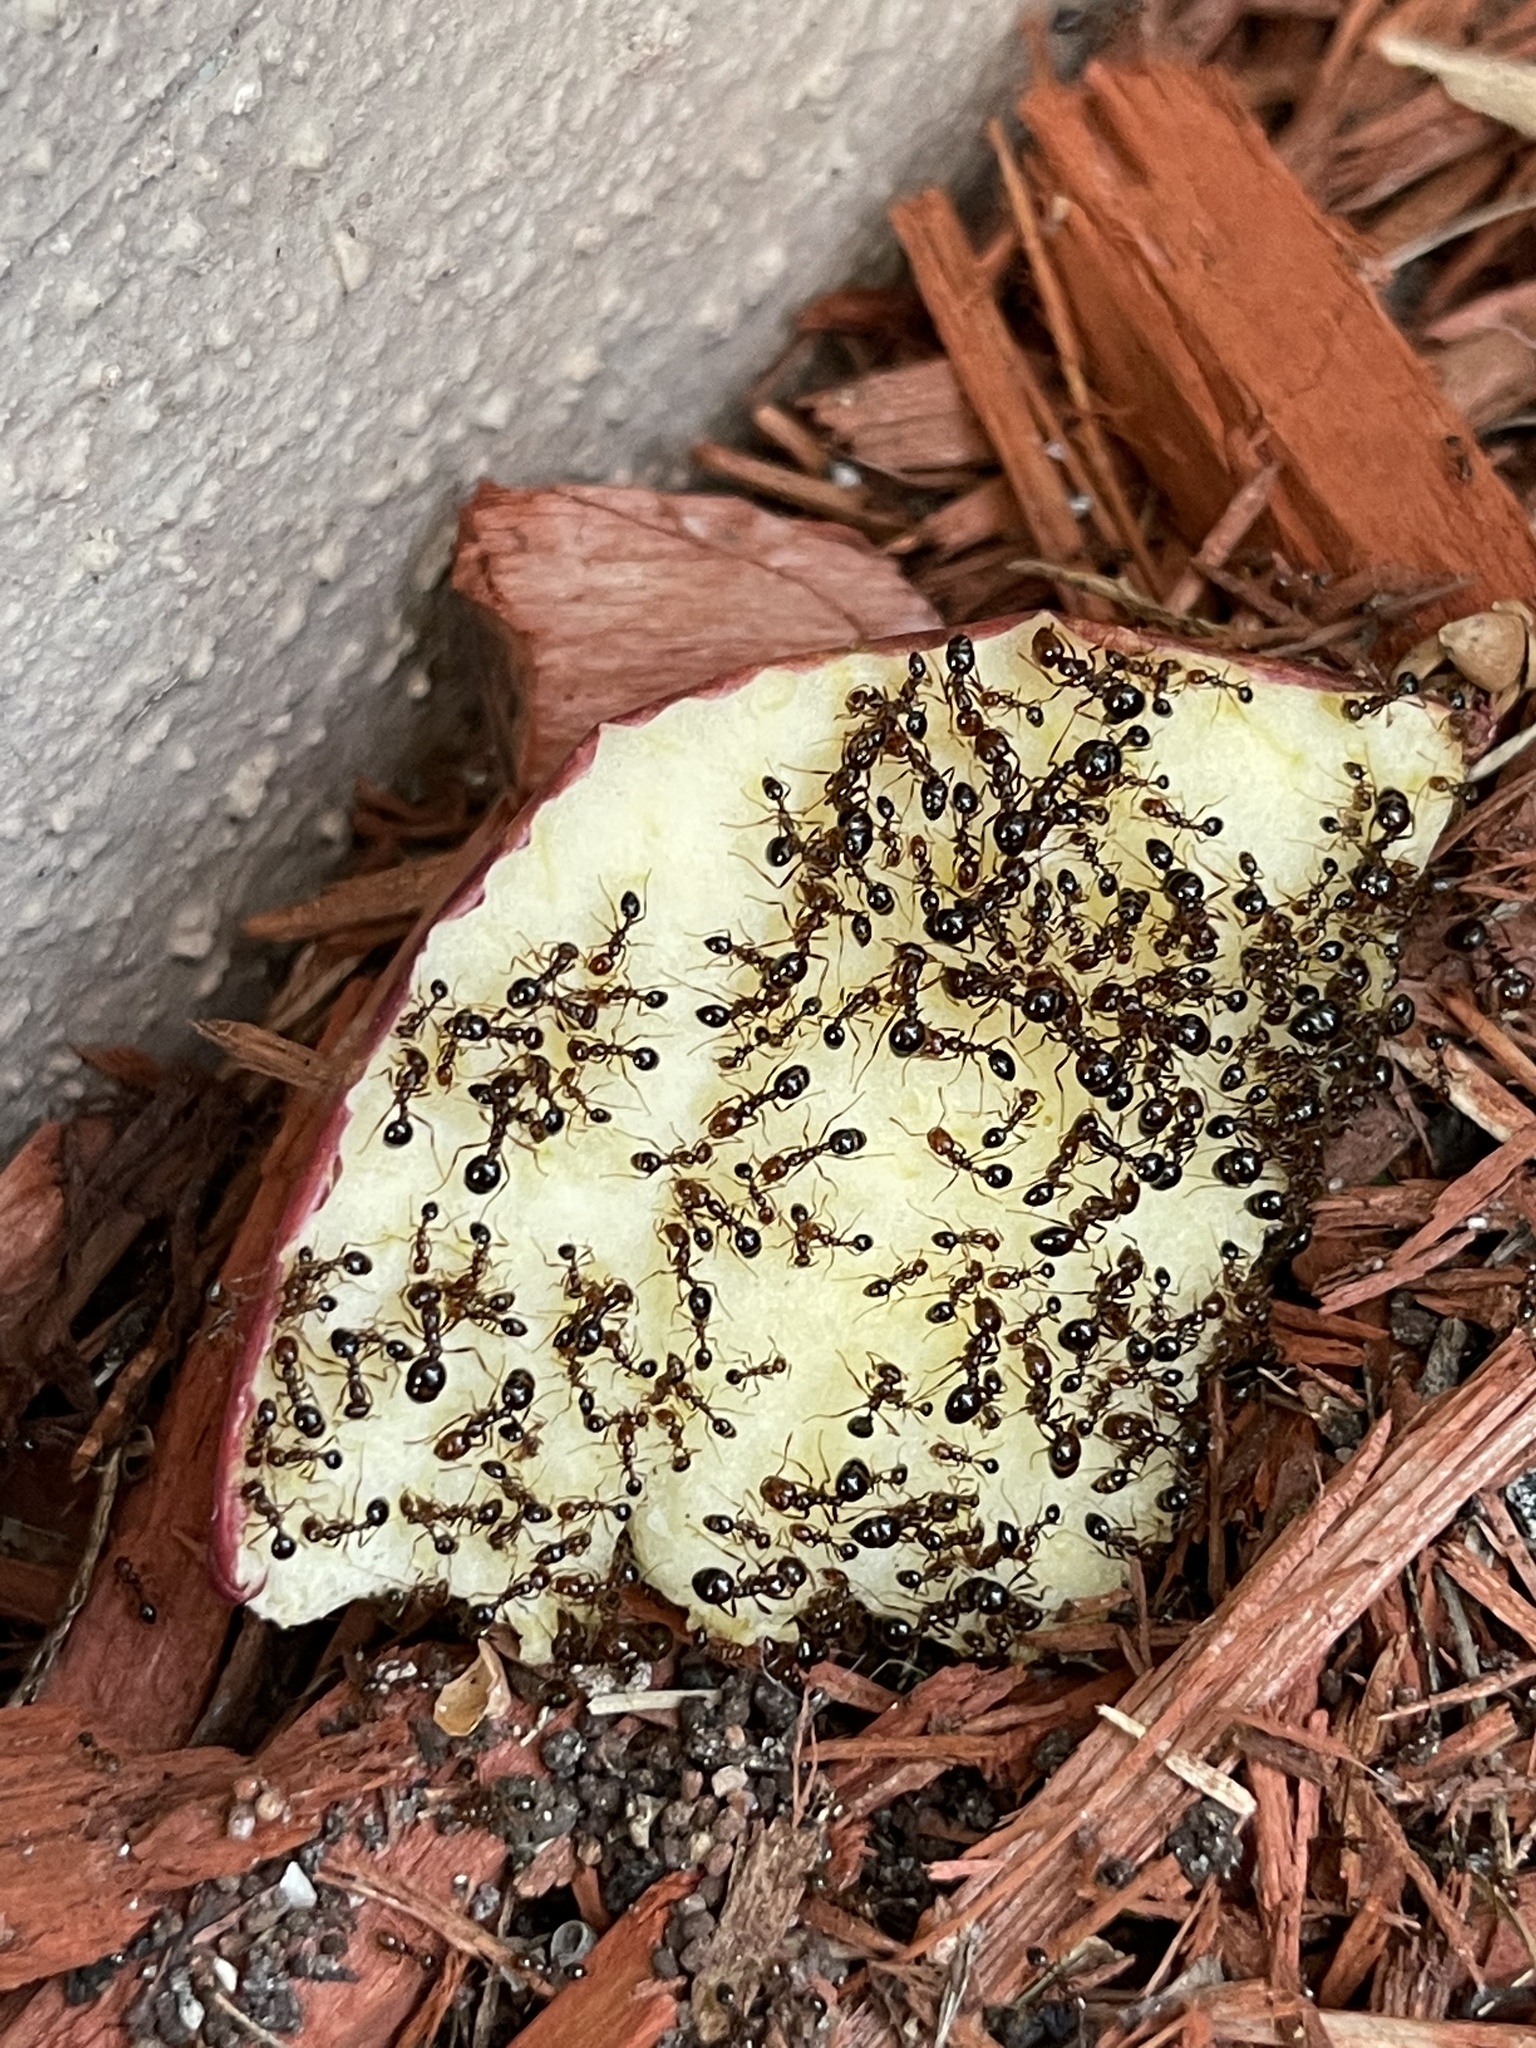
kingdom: Animalia
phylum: Arthropoda
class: Insecta
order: Hymenoptera
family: Formicidae
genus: Solenopsis
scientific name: Solenopsis invicta
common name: Red imported fire ant
